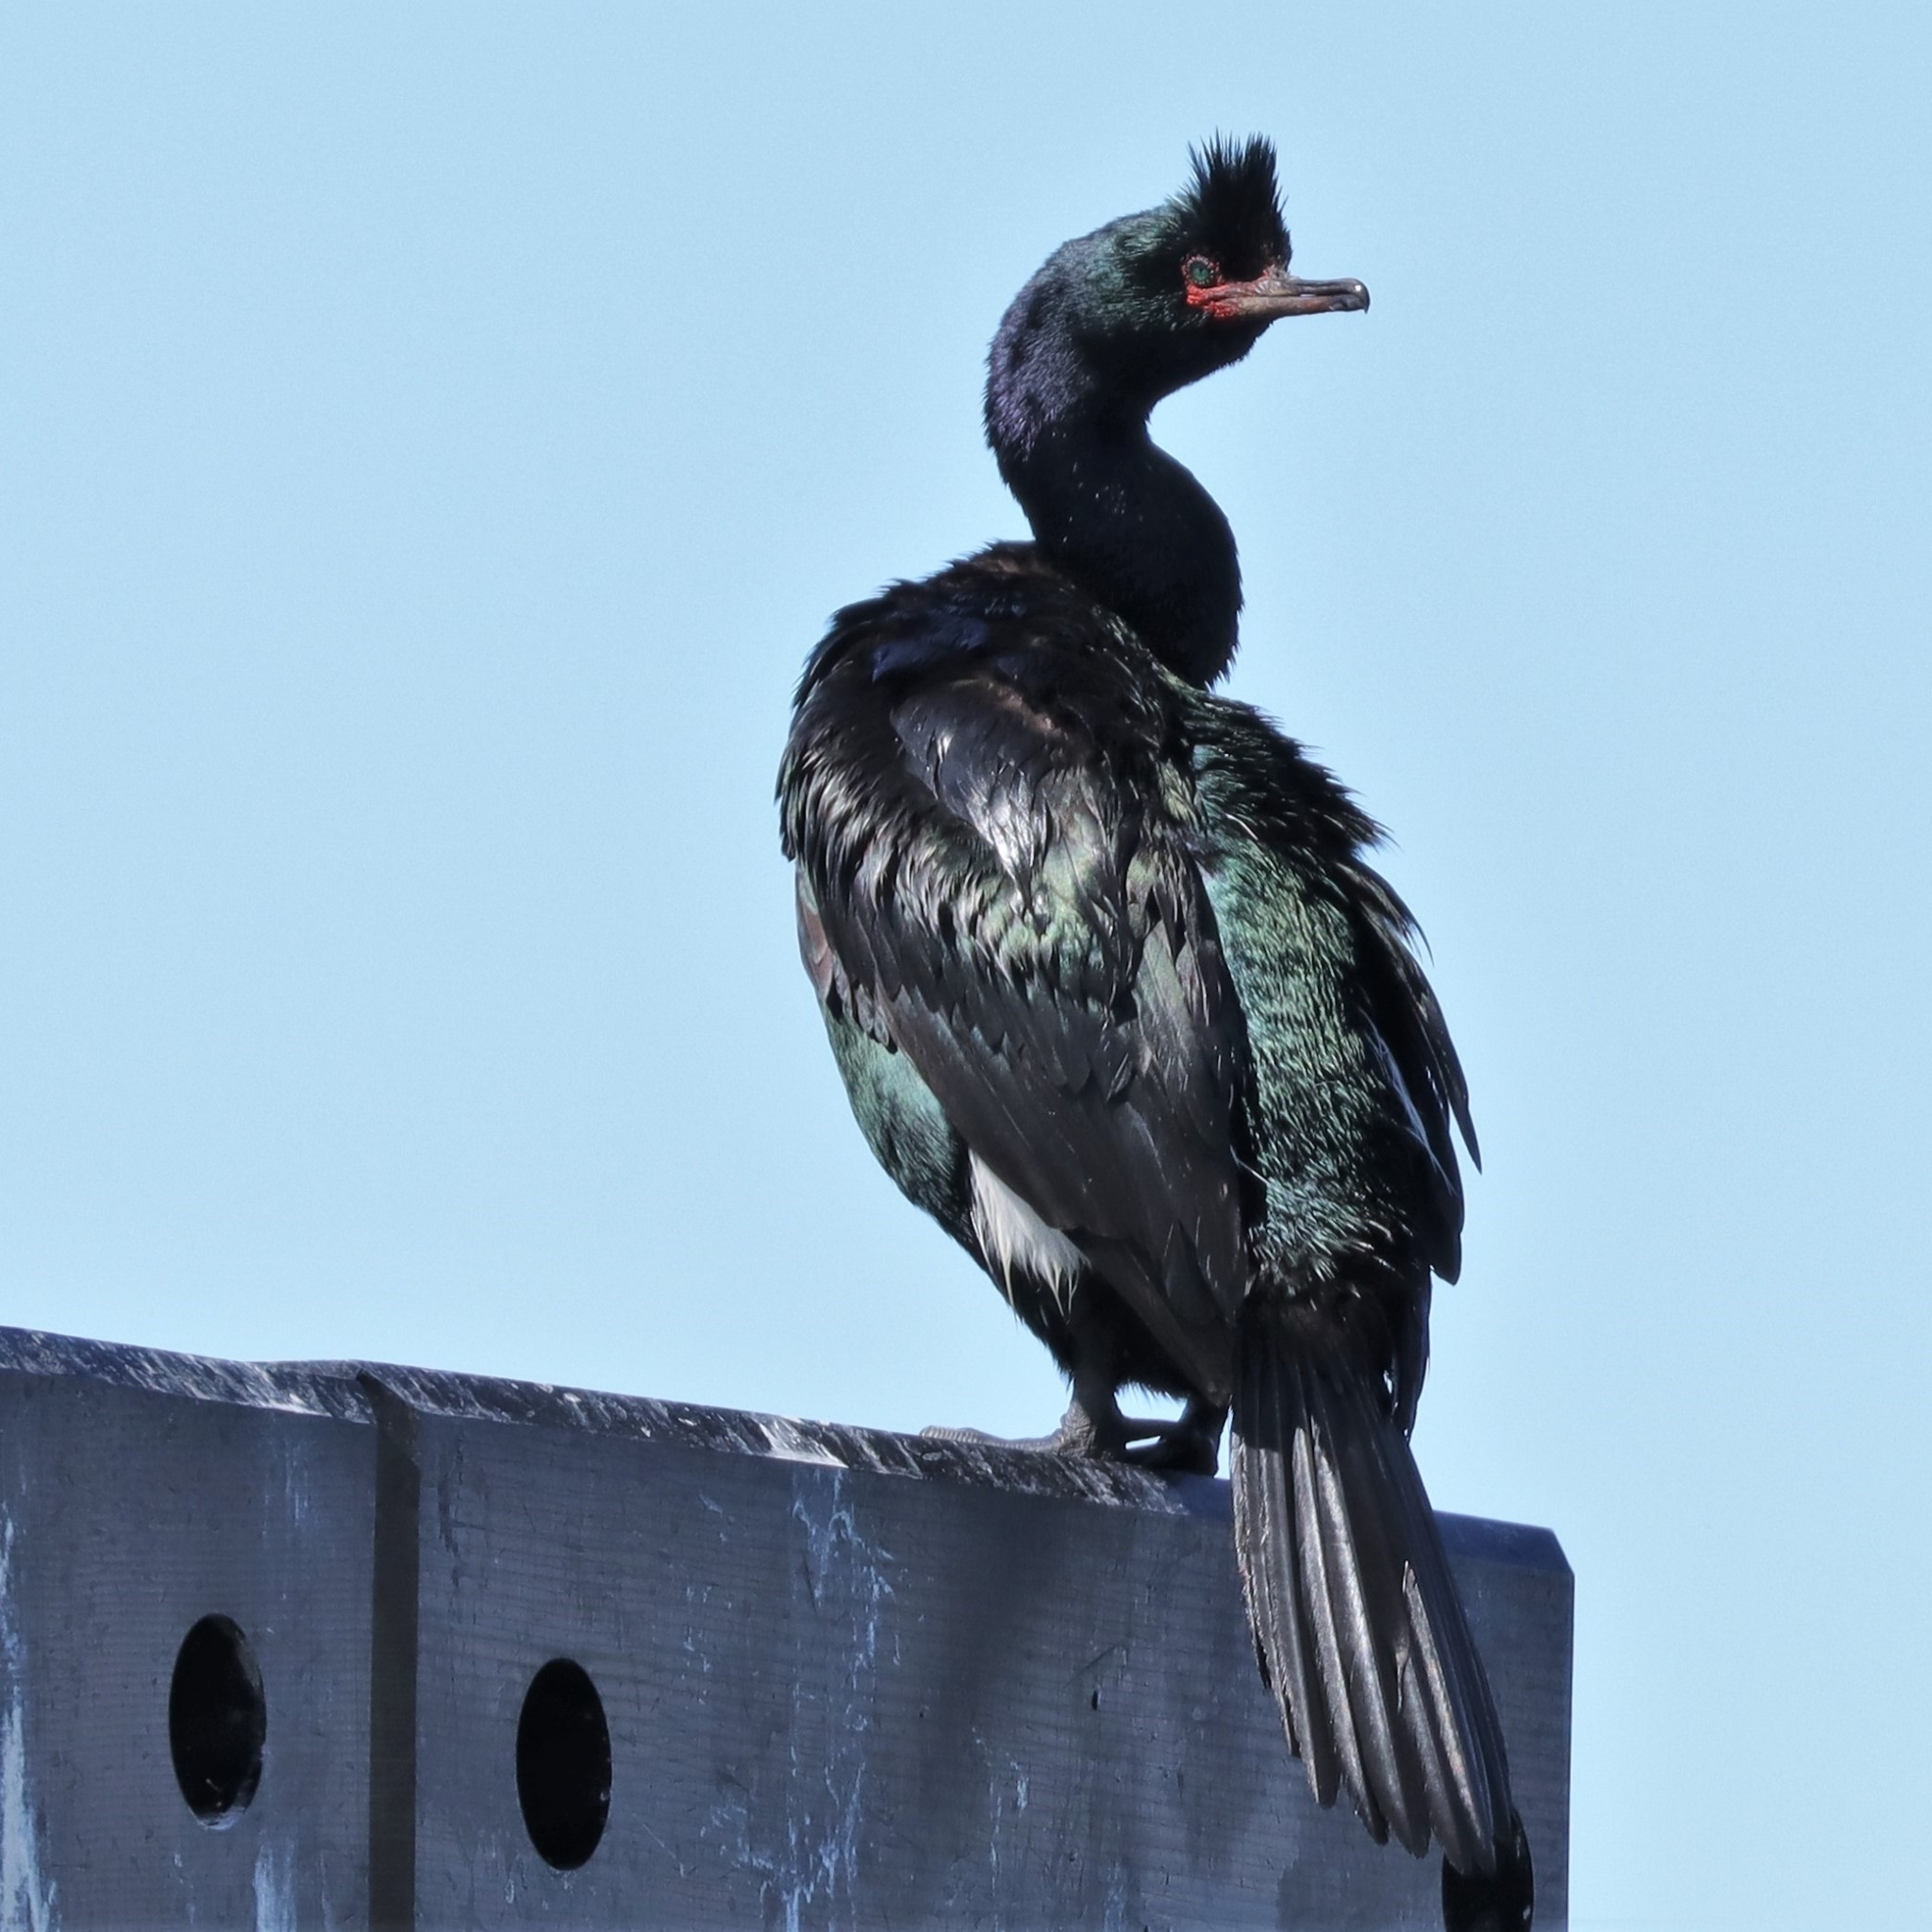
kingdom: Animalia
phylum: Chordata
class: Aves
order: Suliformes
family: Phalacrocoracidae
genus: Phalacrocorax
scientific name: Phalacrocorax pelagicus
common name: Pelagic cormorant
